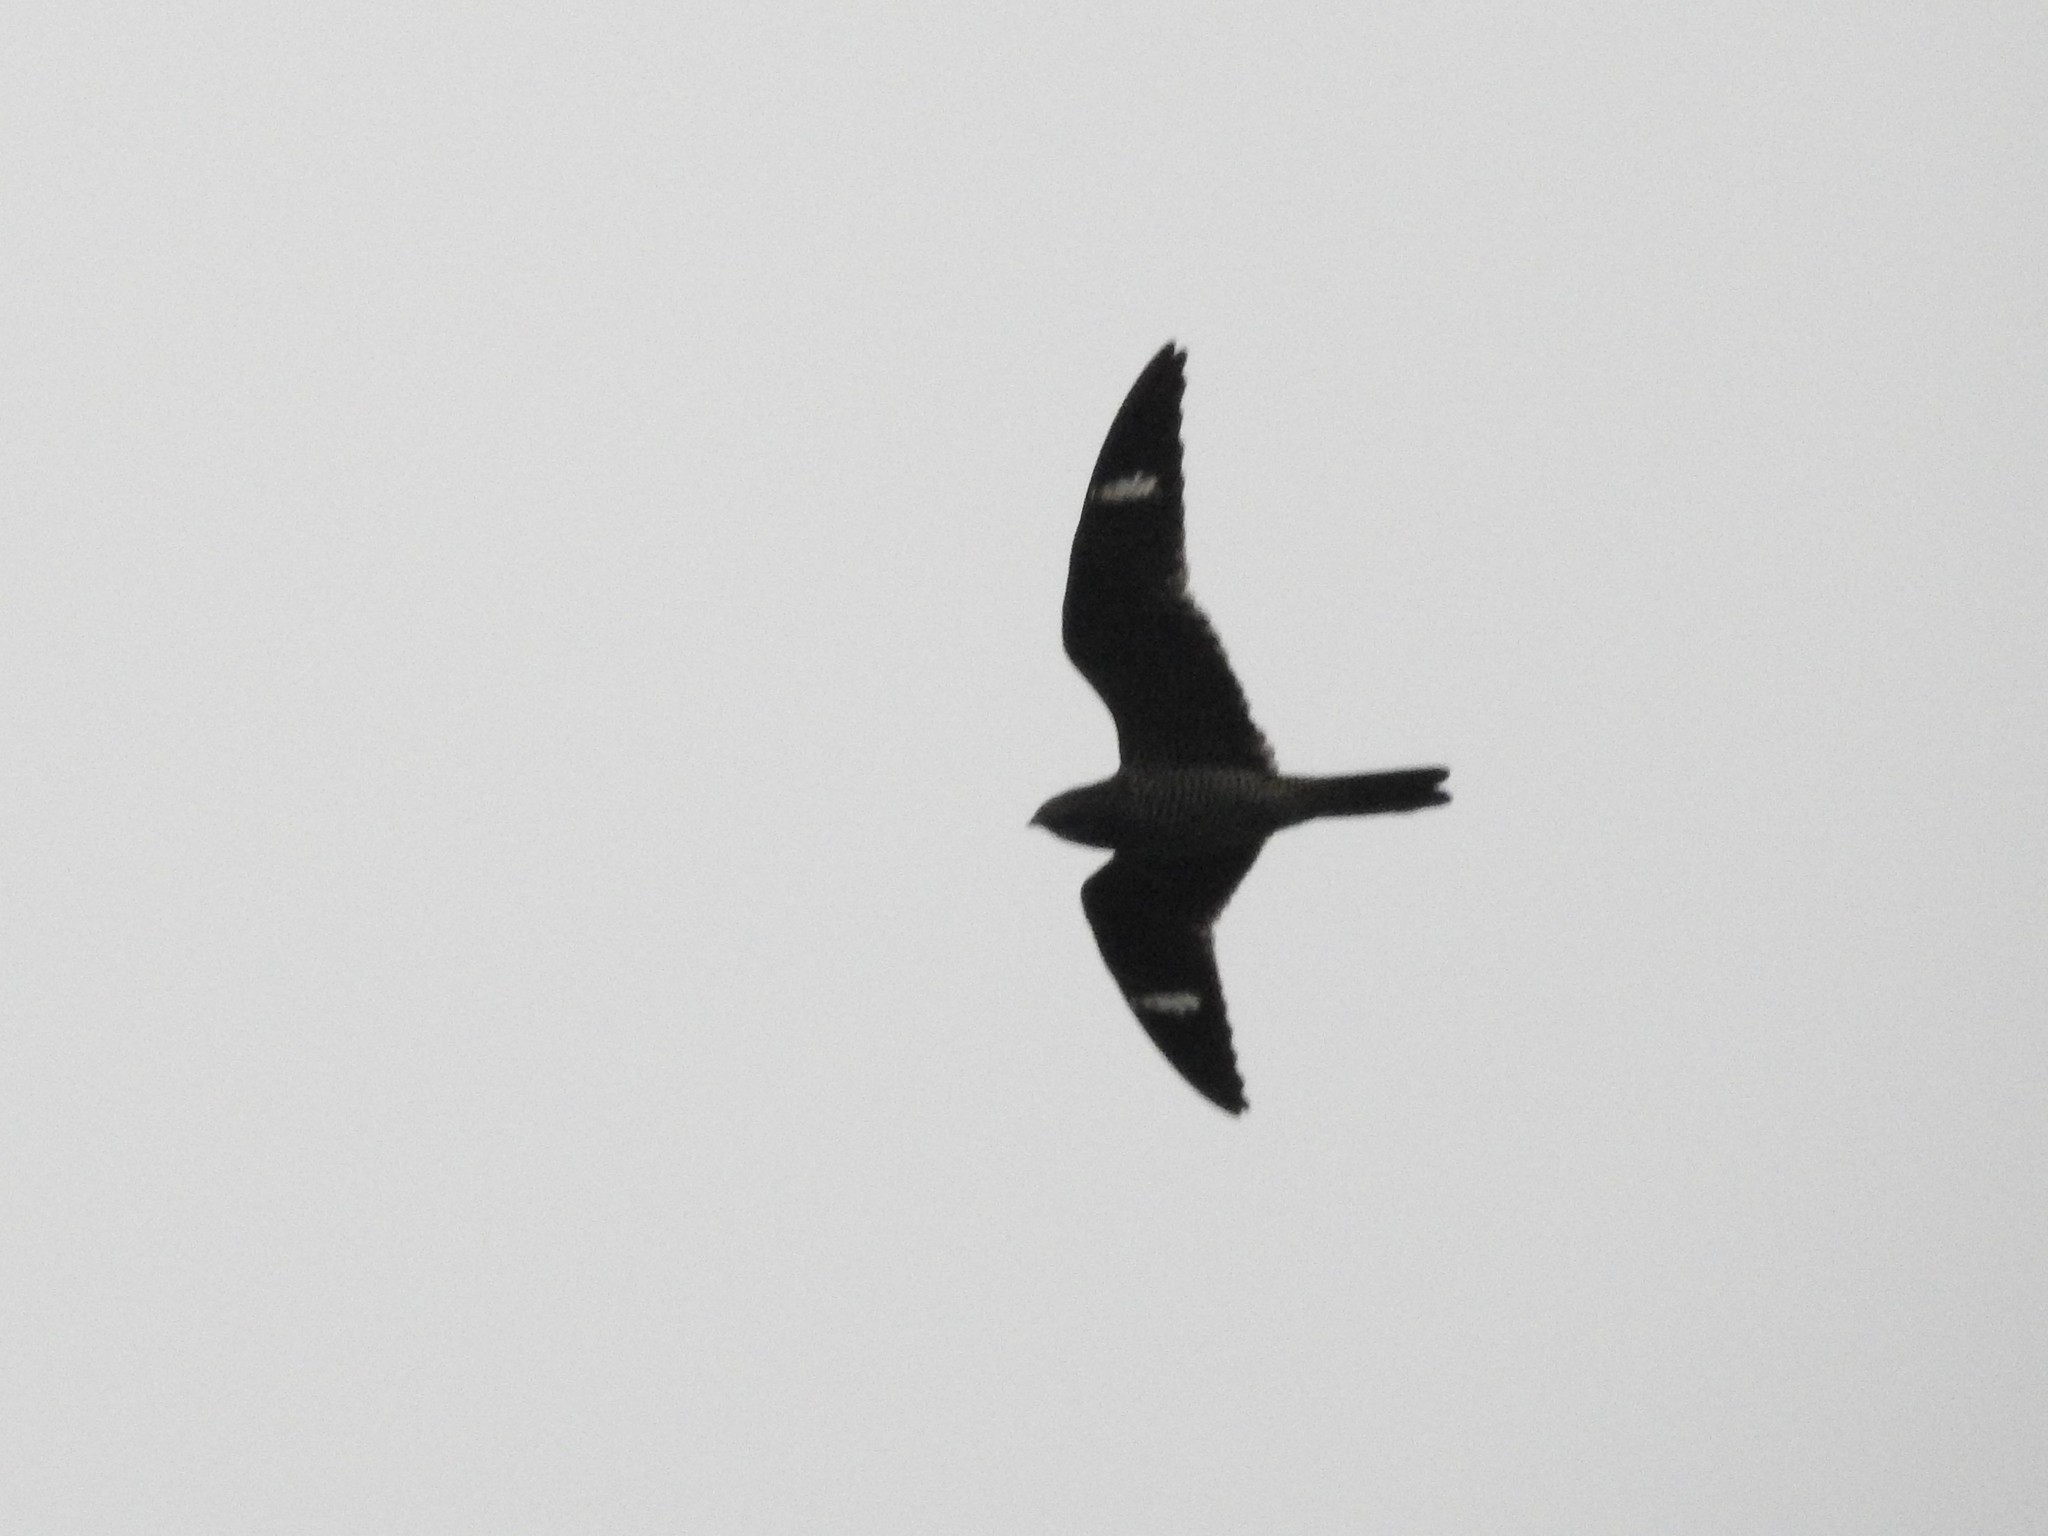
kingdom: Animalia
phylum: Chordata
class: Aves
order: Caprimulgiformes
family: Caprimulgidae
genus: Chordeiles
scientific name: Chordeiles minor
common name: Common nighthawk
